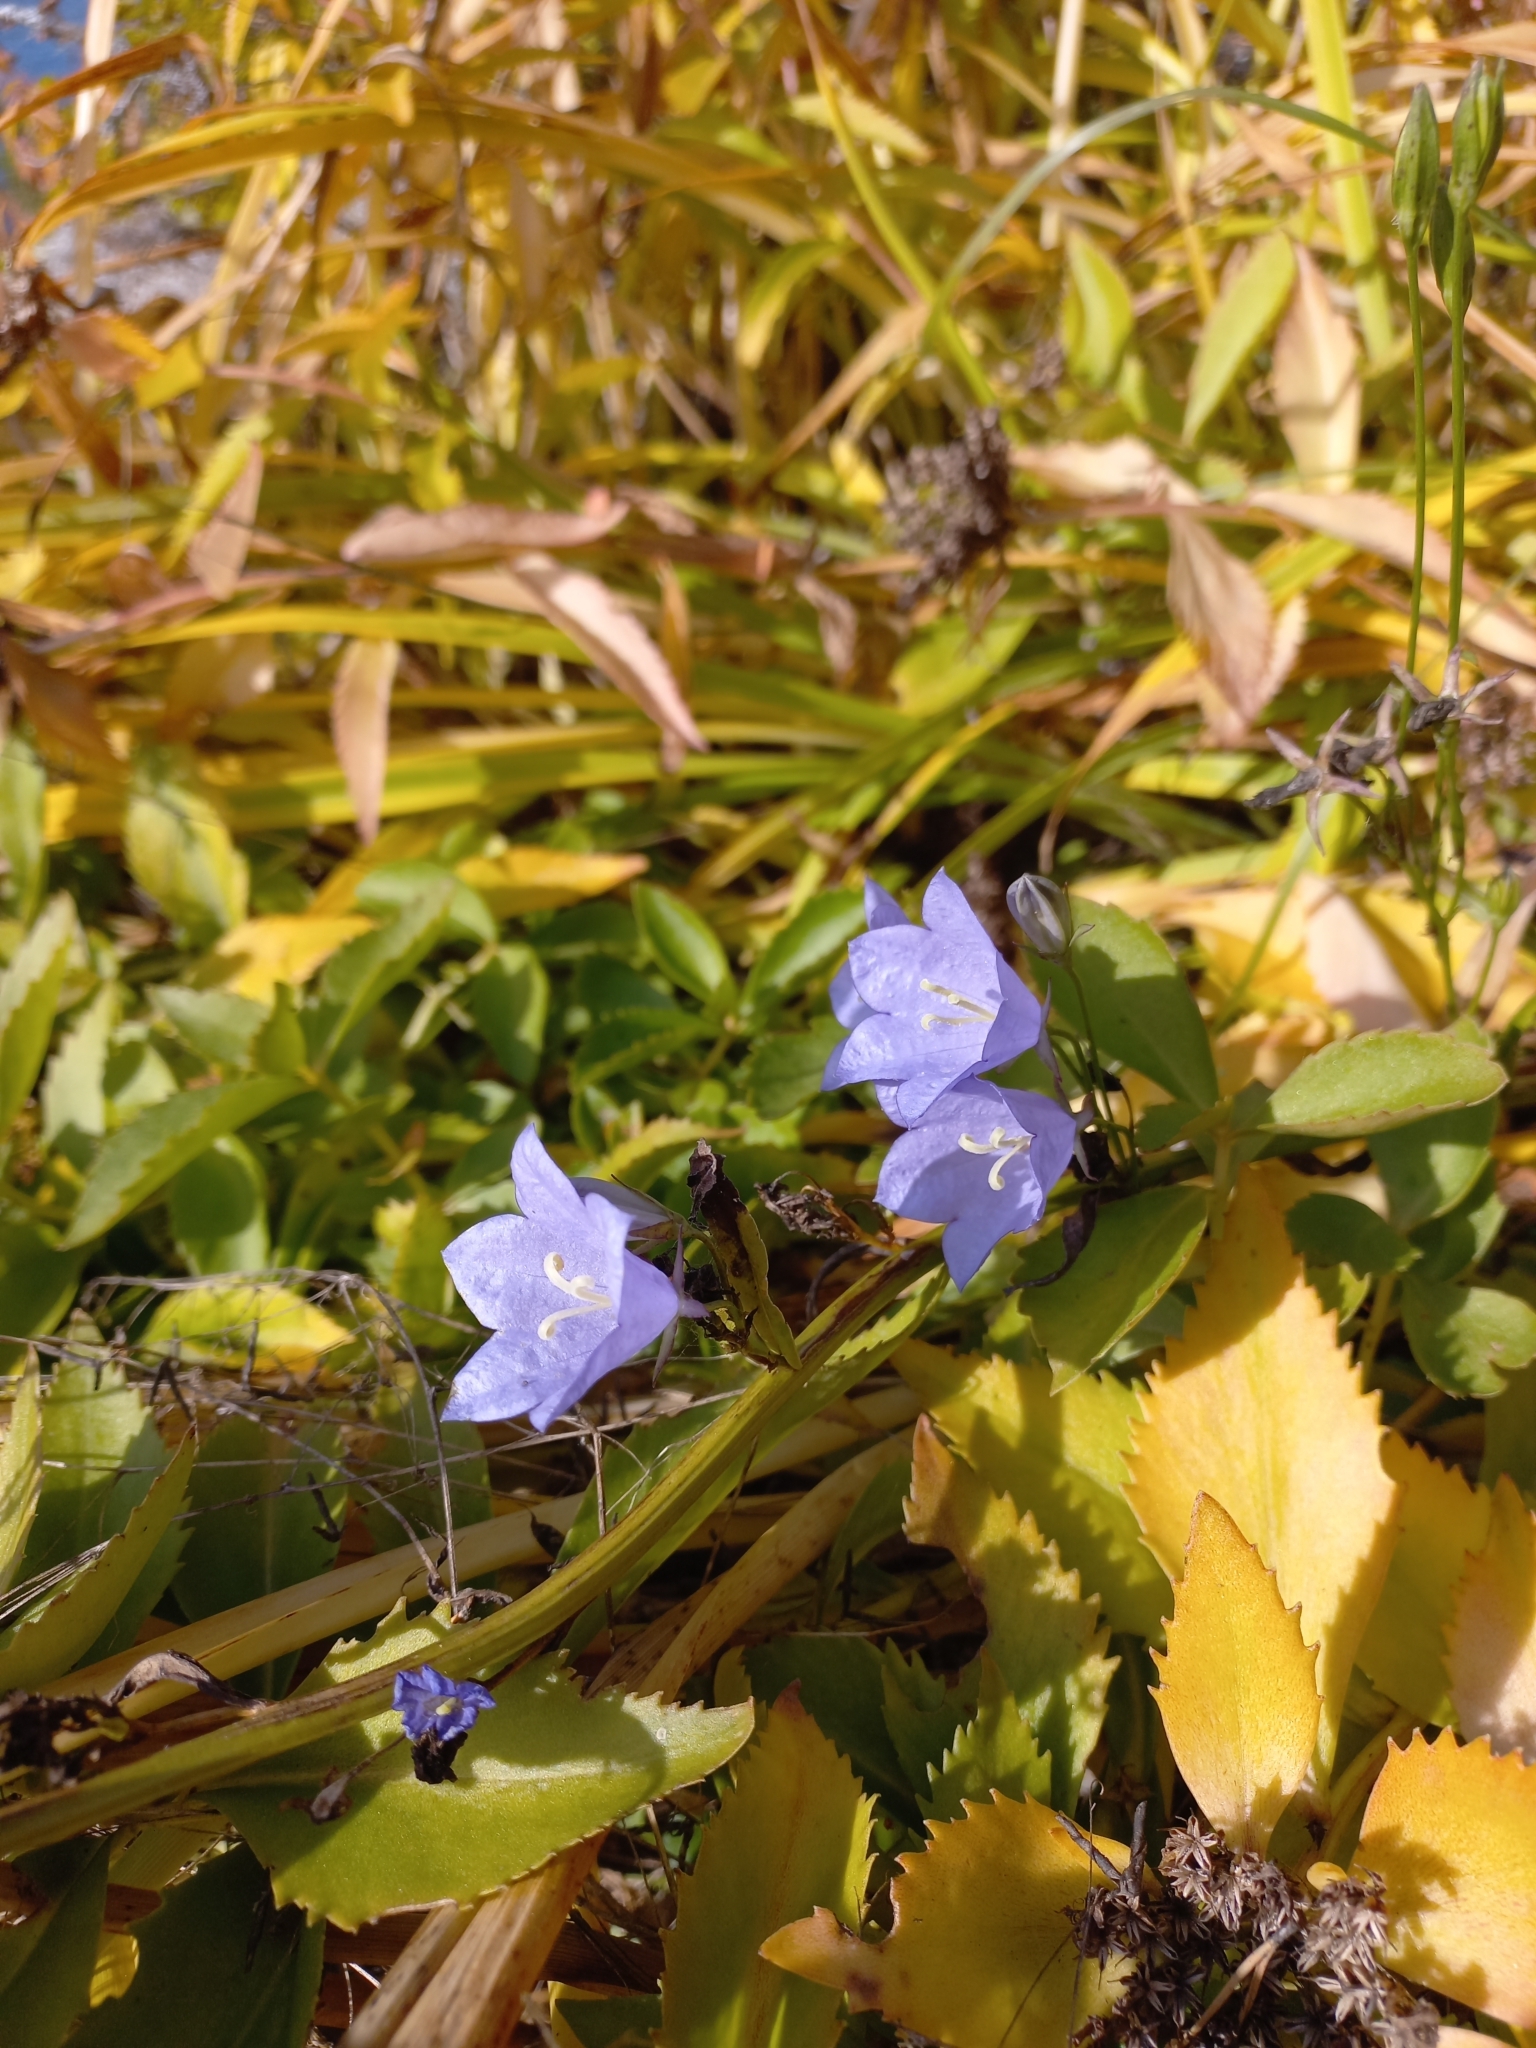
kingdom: Plantae
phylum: Tracheophyta
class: Magnoliopsida
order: Asterales
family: Campanulaceae
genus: Campanula
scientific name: Campanula persicifolia
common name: Peach-leaved bellflower
